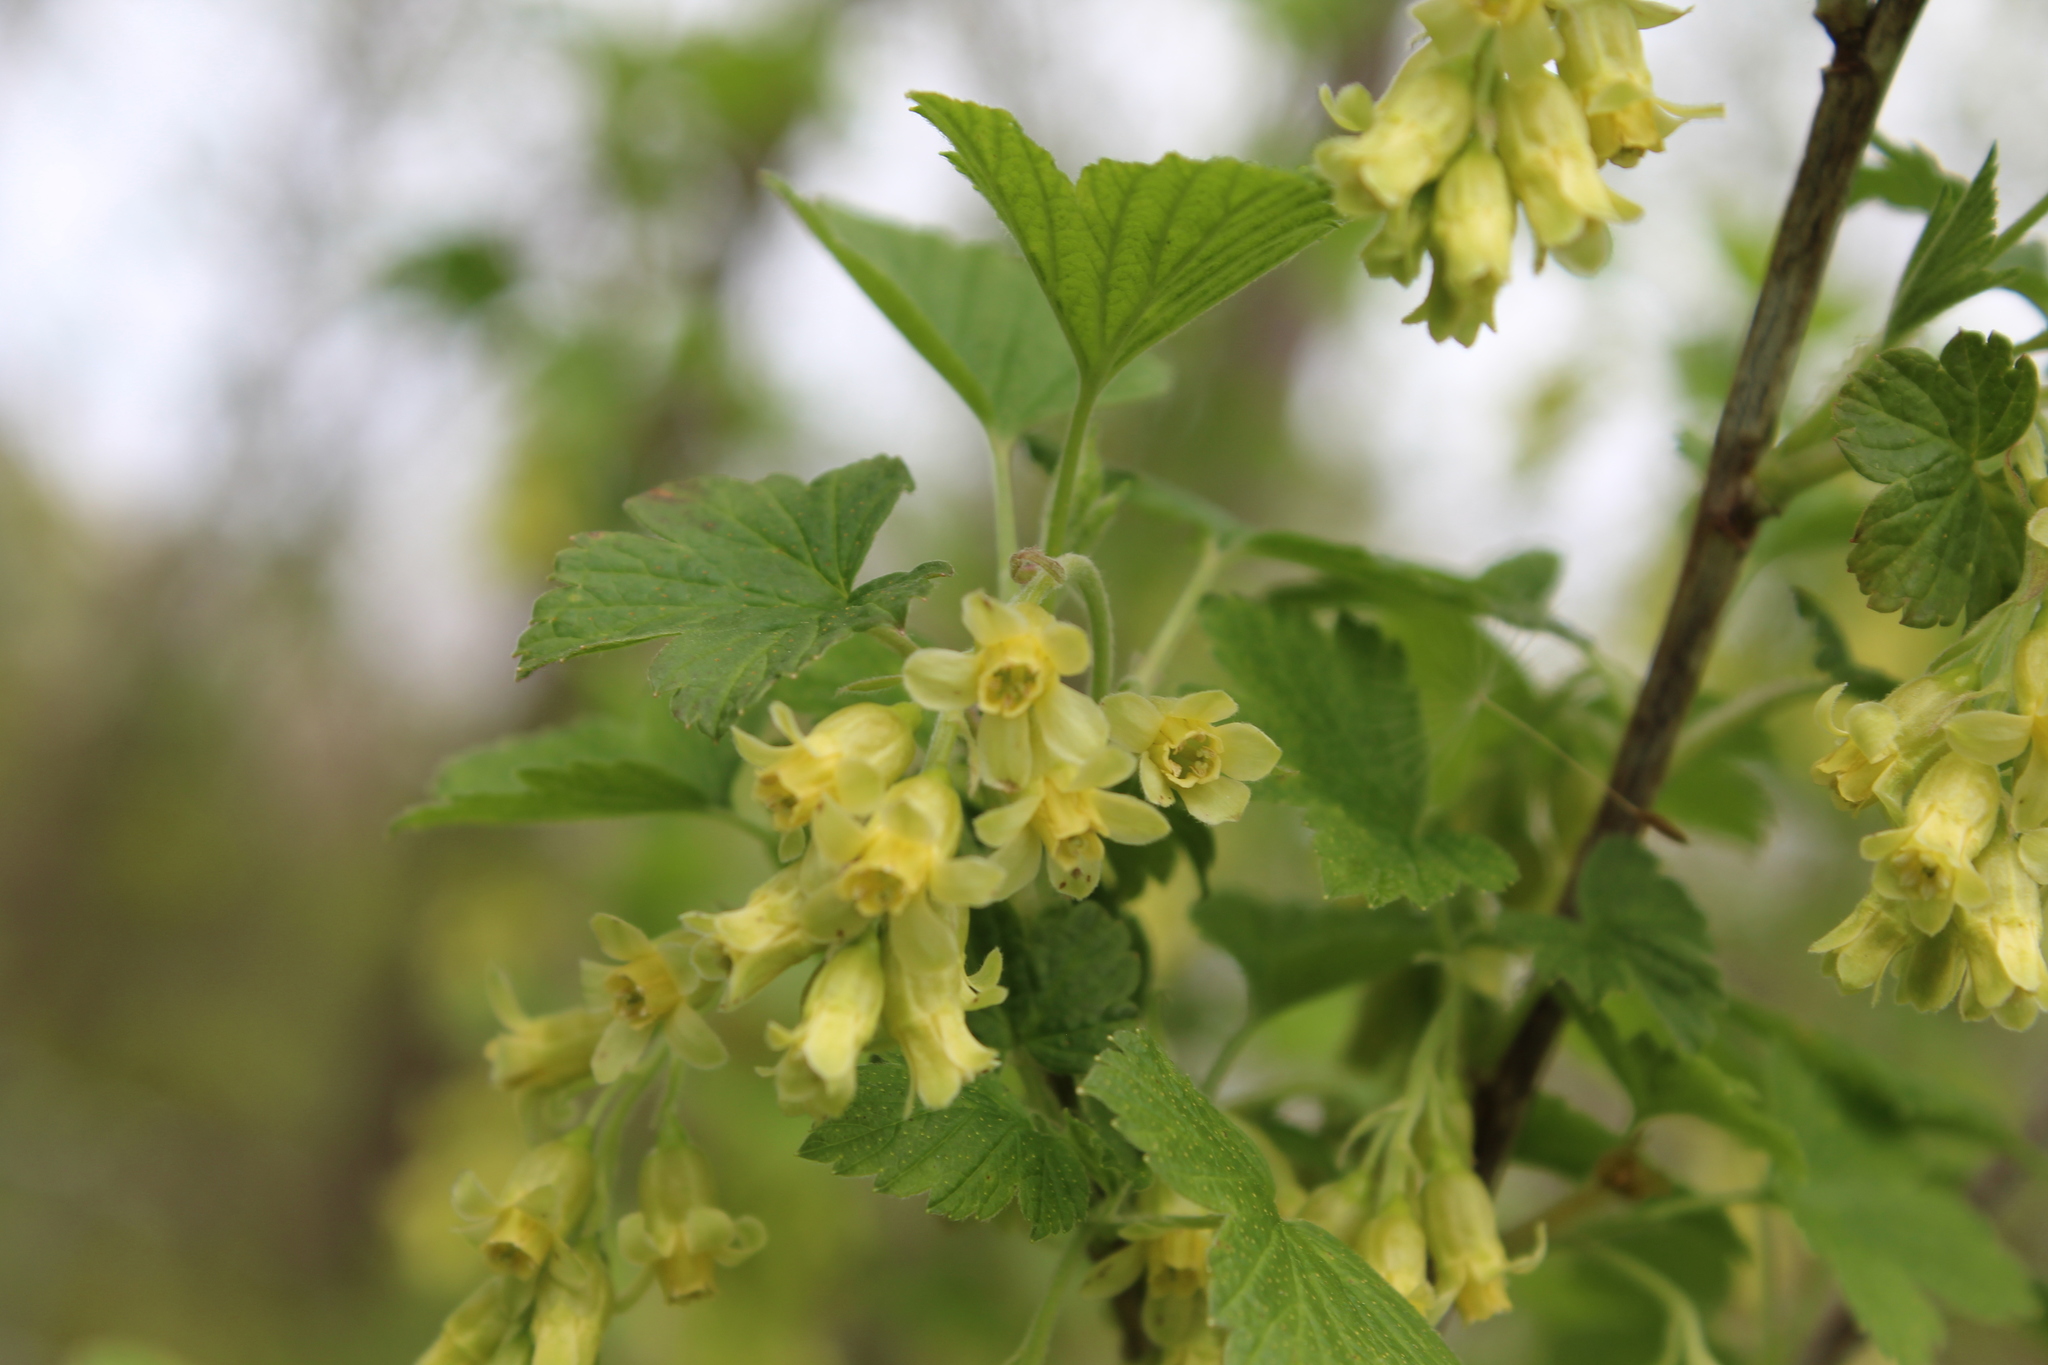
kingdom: Plantae
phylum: Tracheophyta
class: Magnoliopsida
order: Saxifragales
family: Grossulariaceae
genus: Ribes
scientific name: Ribes americanum
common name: American black currant
